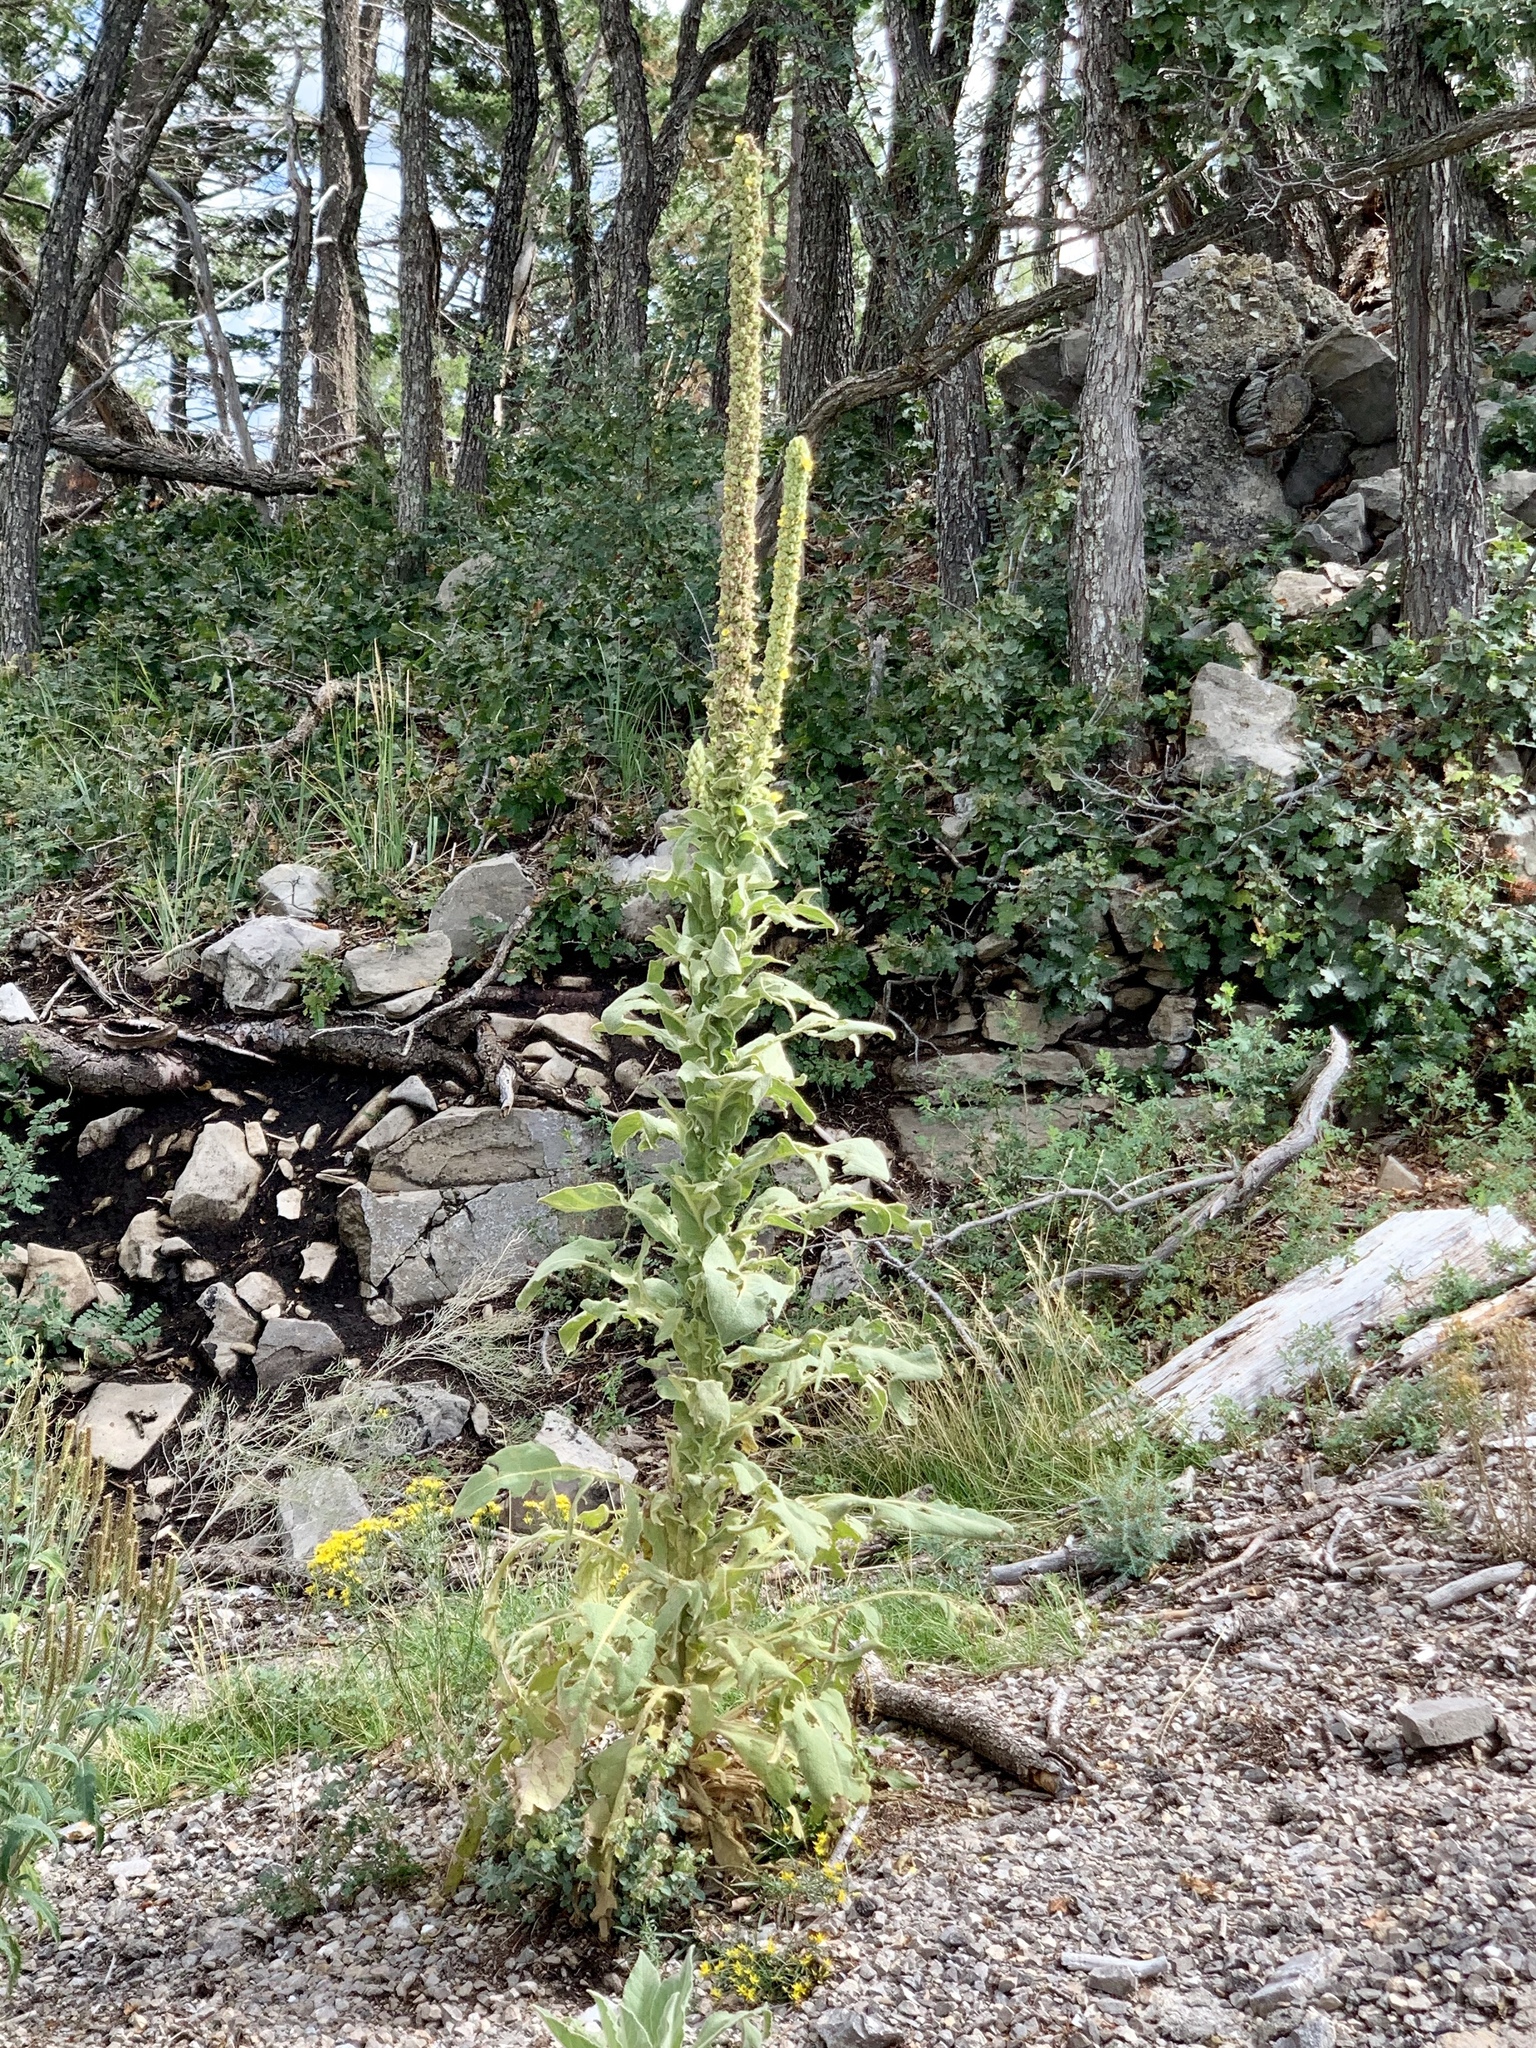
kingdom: Plantae
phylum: Tracheophyta
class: Magnoliopsida
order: Lamiales
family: Scrophulariaceae
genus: Verbascum
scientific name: Verbascum thapsus
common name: Common mullein
